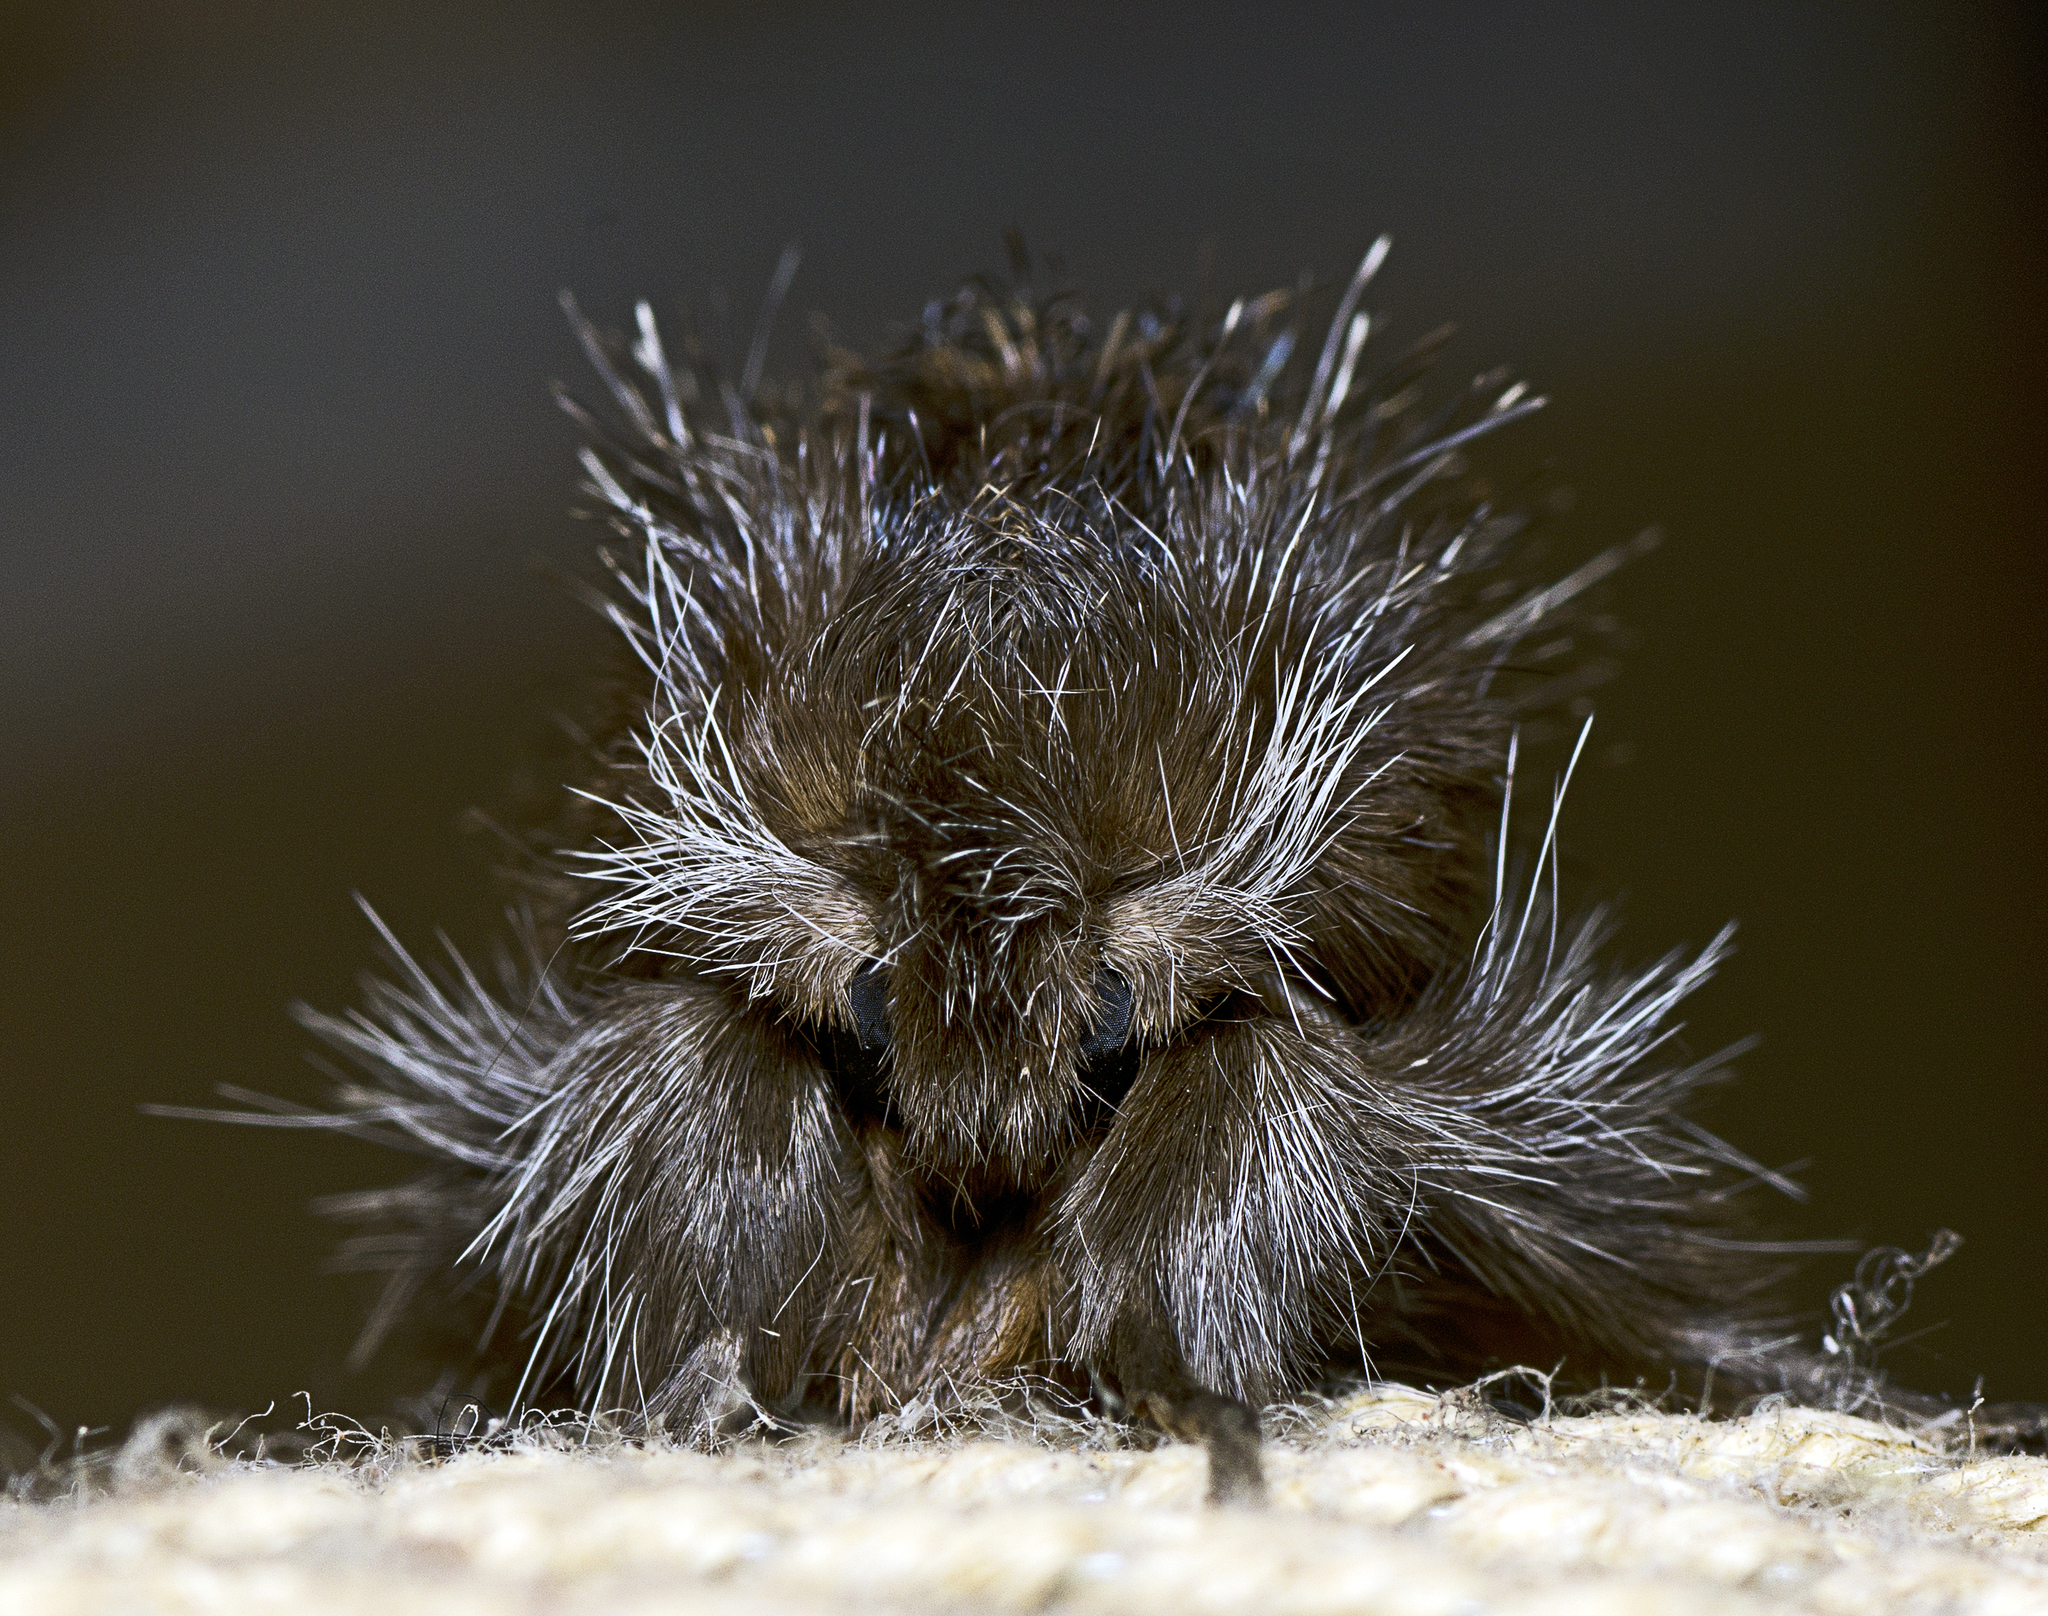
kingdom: Animalia
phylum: Arthropoda
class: Insecta
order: Lepidoptera
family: Notodontidae
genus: Ochrogaster
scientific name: Ochrogaster lunifer
